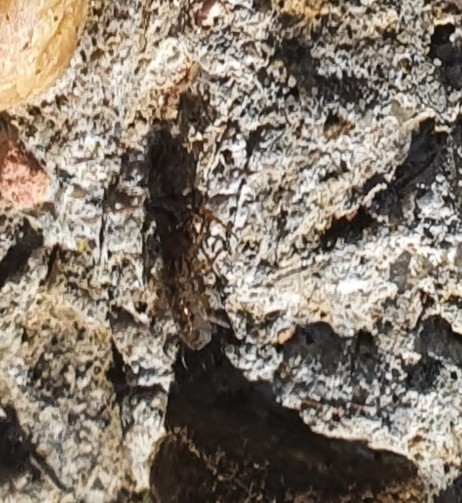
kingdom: Animalia
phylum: Arthropoda
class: Collembola
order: Entomobryomorpha
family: Orchesellidae
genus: Orchesella
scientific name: Orchesella villosa
